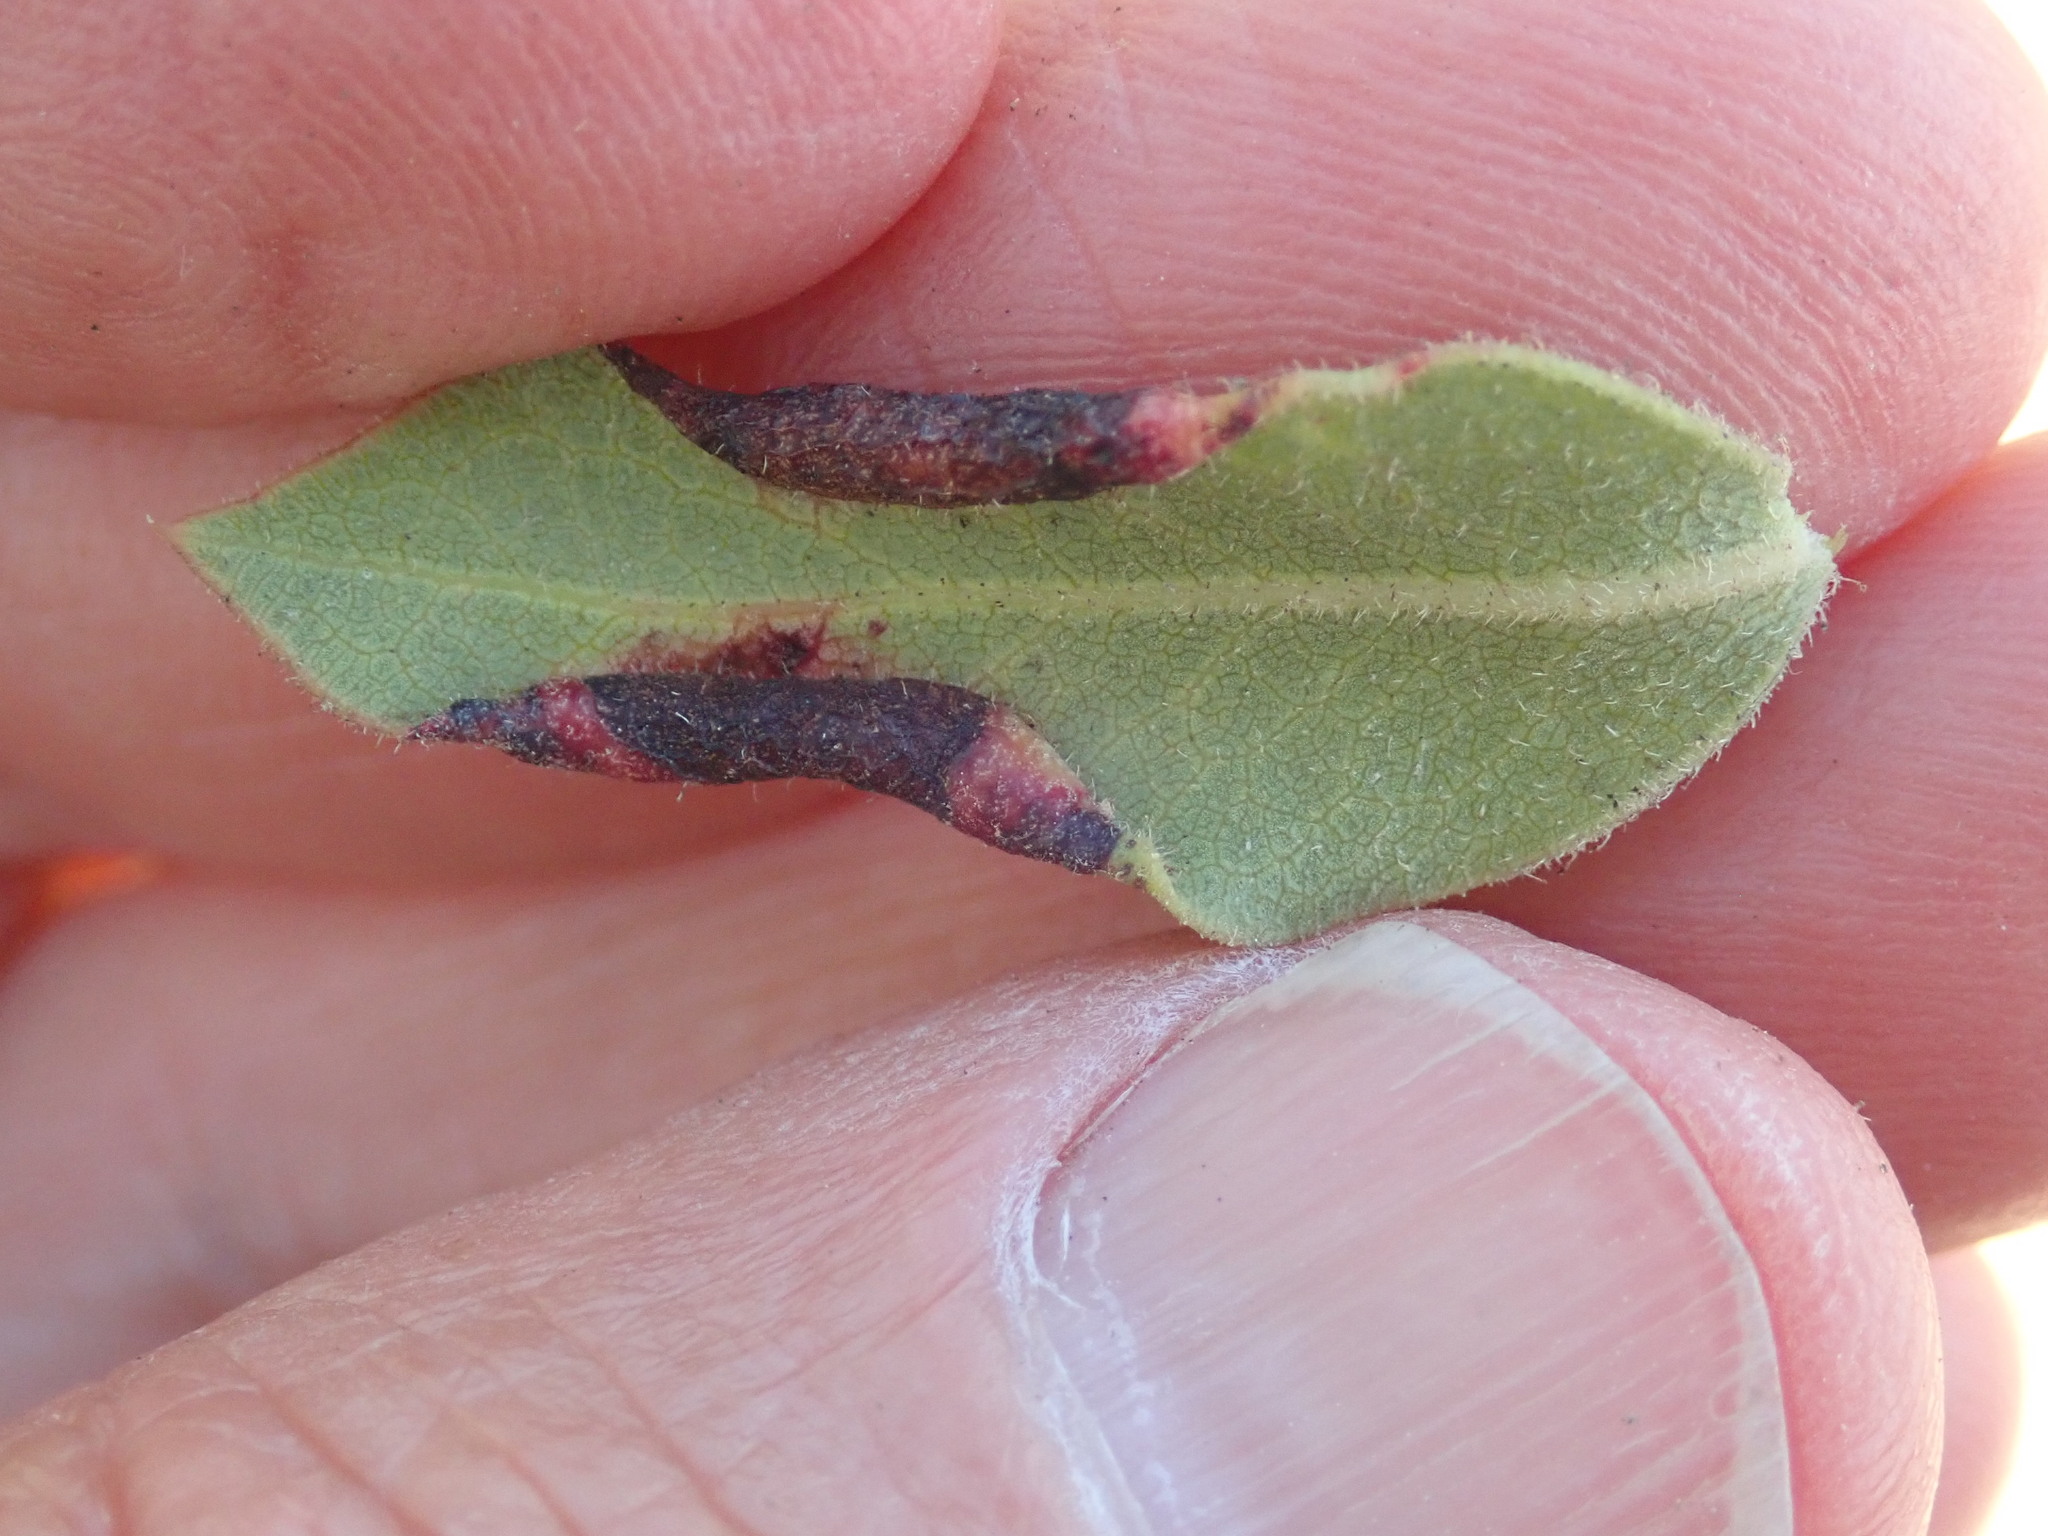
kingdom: Animalia
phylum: Arthropoda
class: Insecta
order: Hemiptera
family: Aphididae
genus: Tamalia
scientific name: Tamalia coweni
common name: Manzanita leafgall aphid
